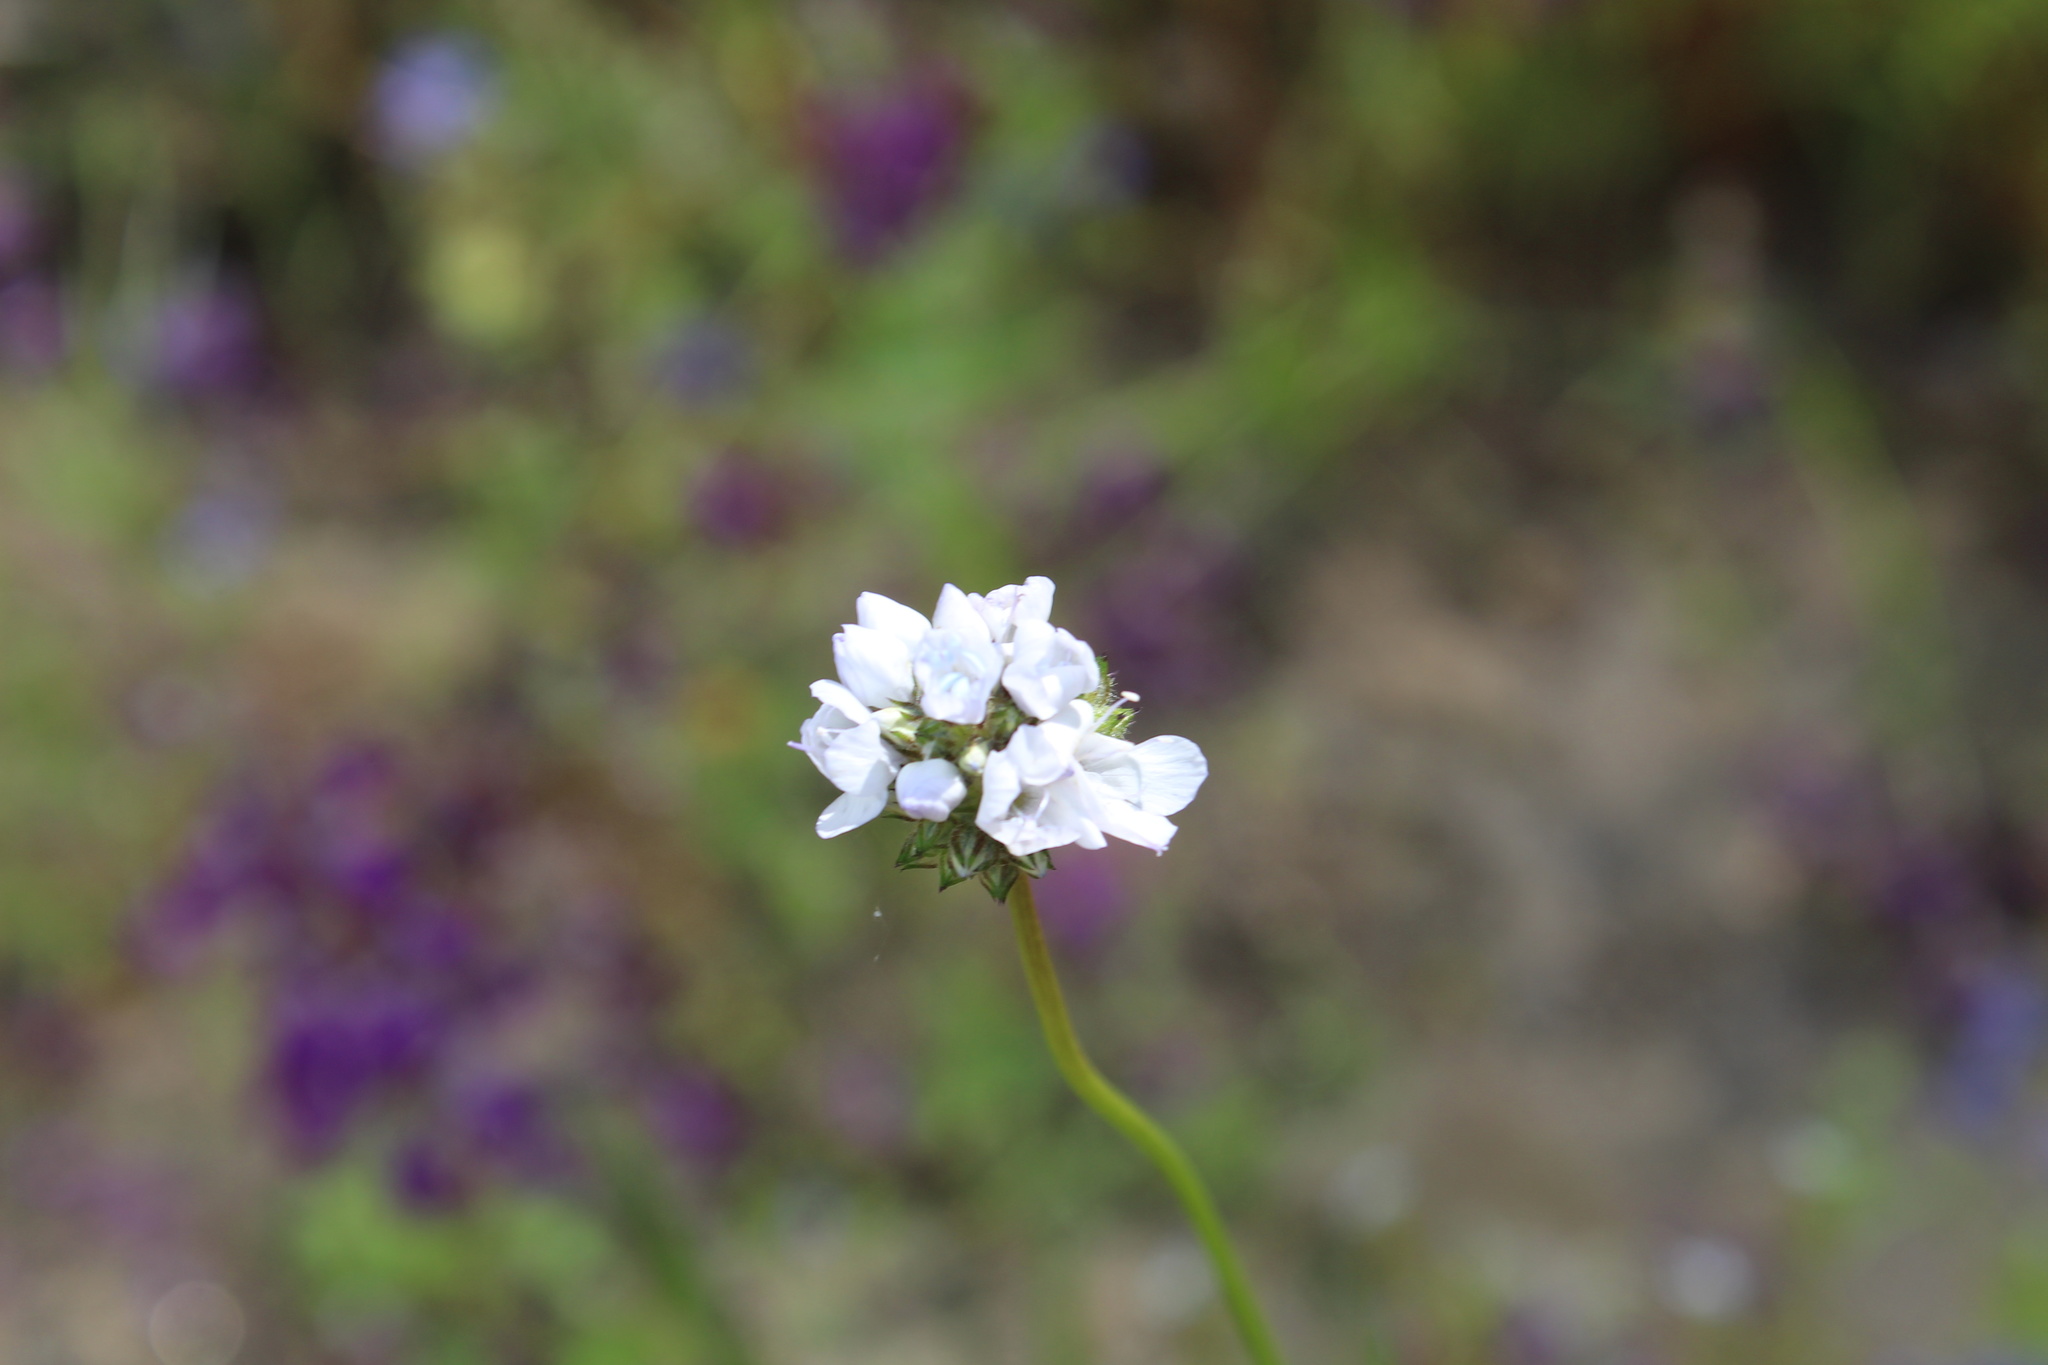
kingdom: Plantae
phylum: Tracheophyta
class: Magnoliopsida
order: Ericales
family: Polemoniaceae
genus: Gilia
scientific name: Gilia capitata
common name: Bluehead gilia
